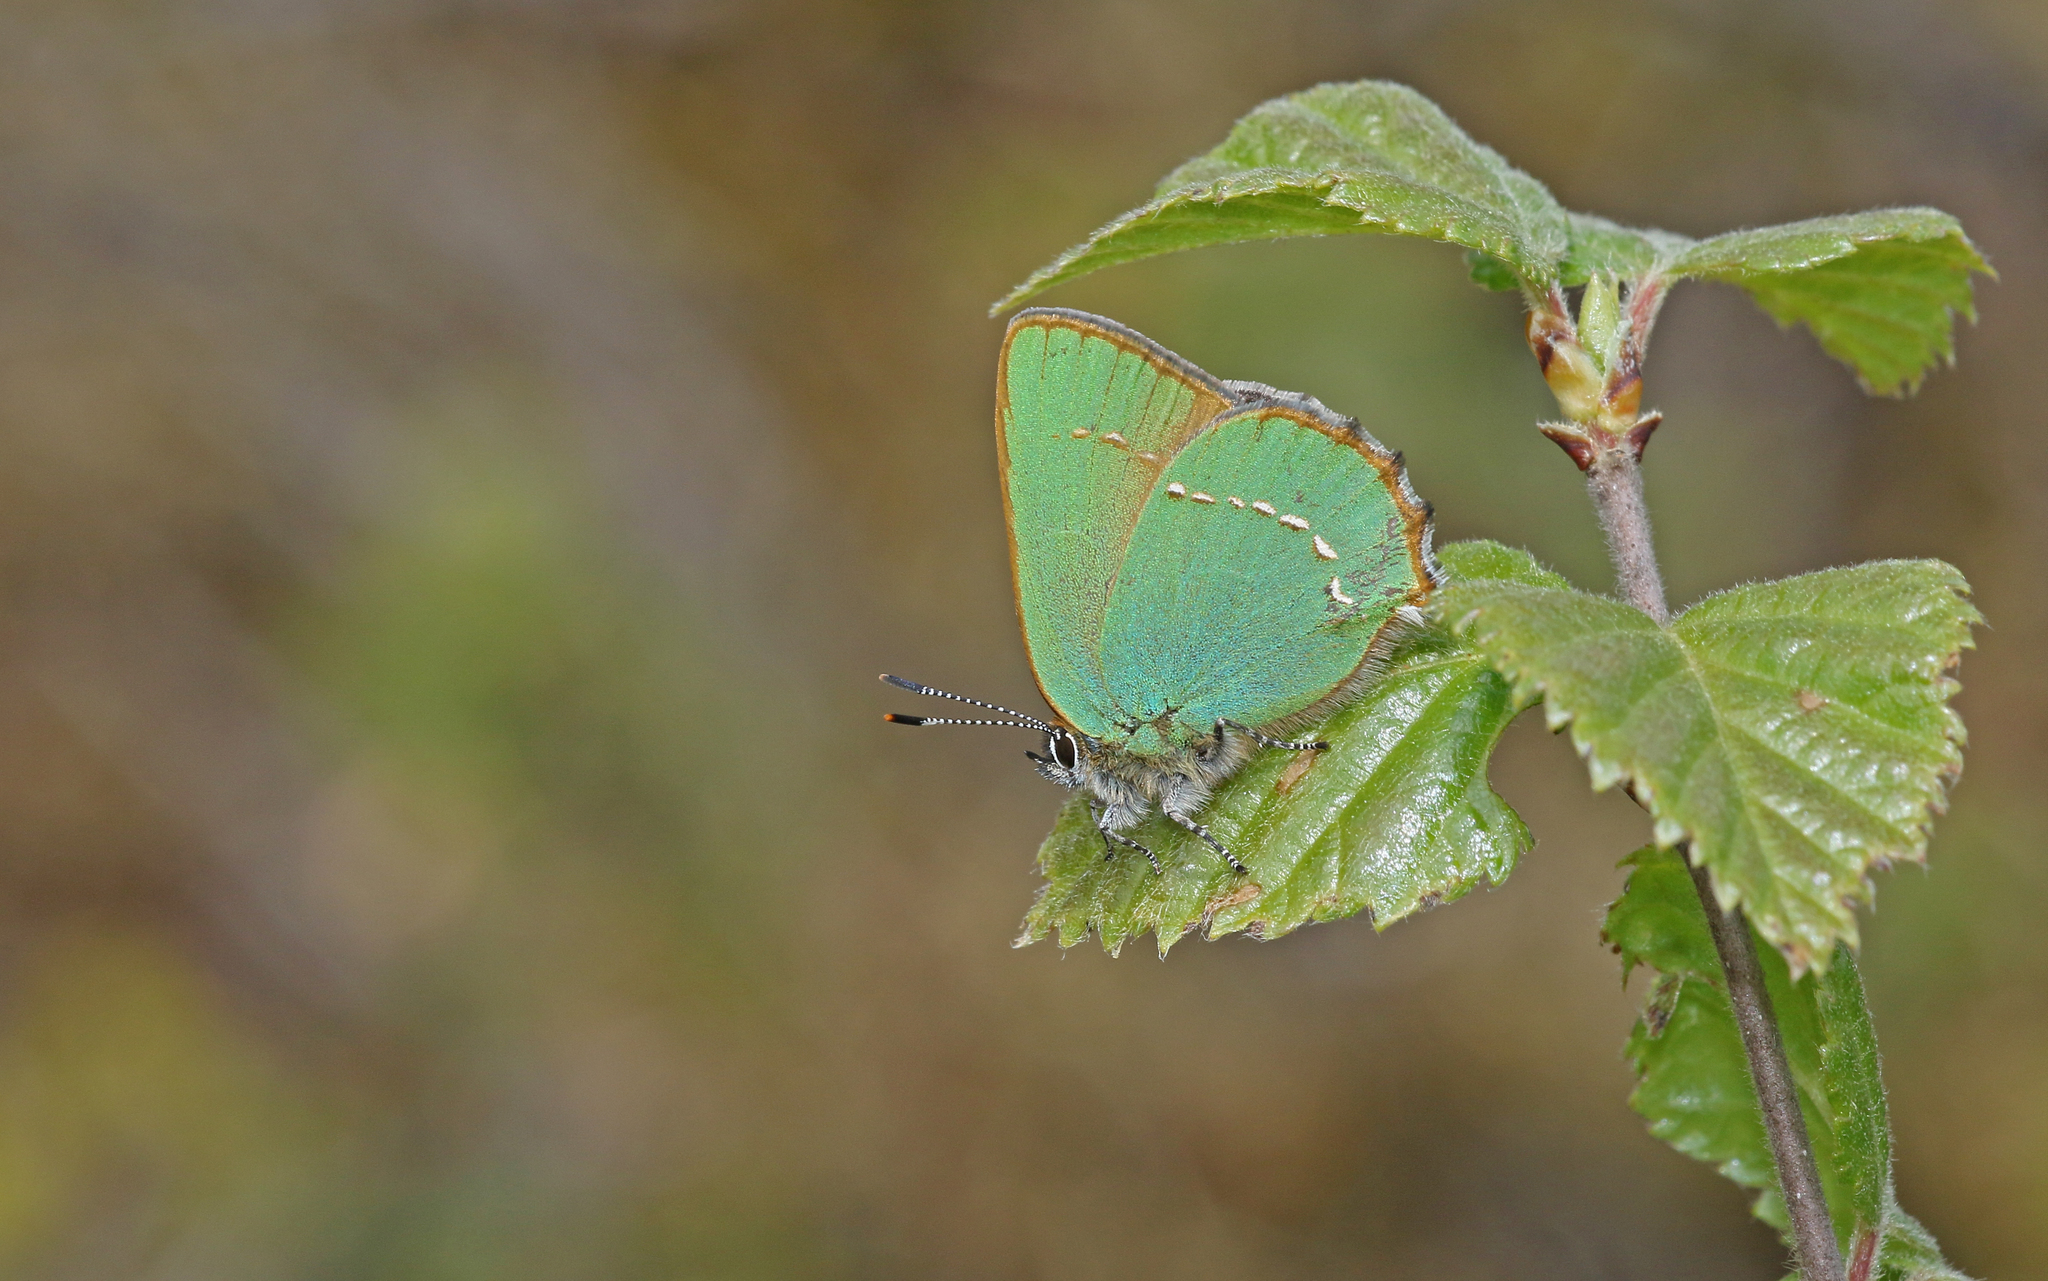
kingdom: Animalia
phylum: Arthropoda
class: Insecta
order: Lepidoptera
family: Lycaenidae
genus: Callophrys
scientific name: Callophrys rubi
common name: Green hairstreak
